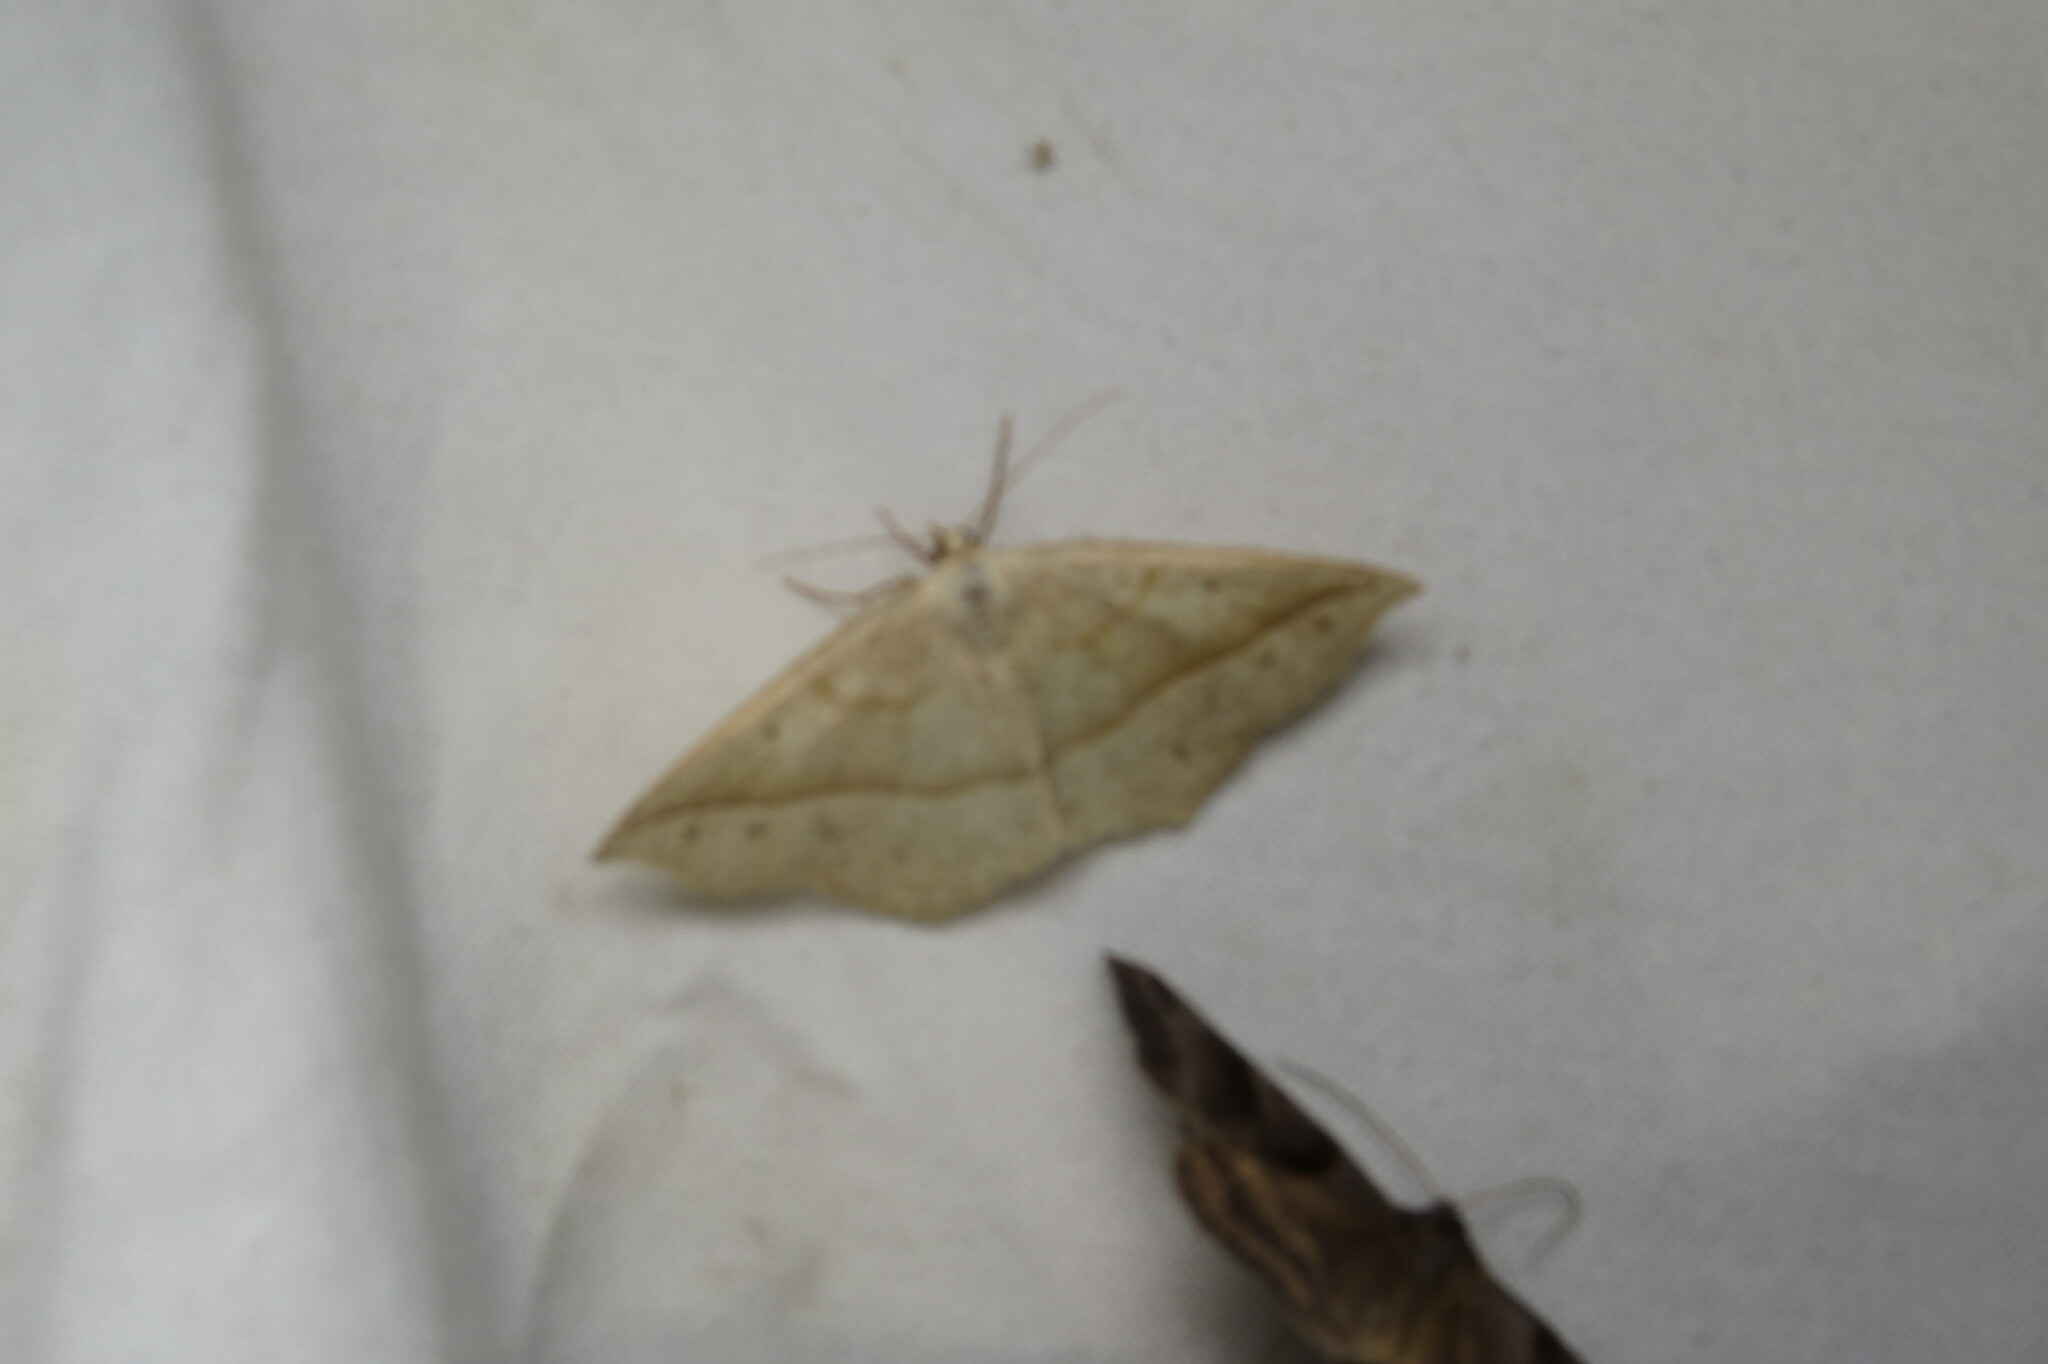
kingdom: Animalia
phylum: Arthropoda
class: Insecta
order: Lepidoptera
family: Geometridae
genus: Eusarca
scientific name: Eusarca confusaria
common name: Confused eusarca
